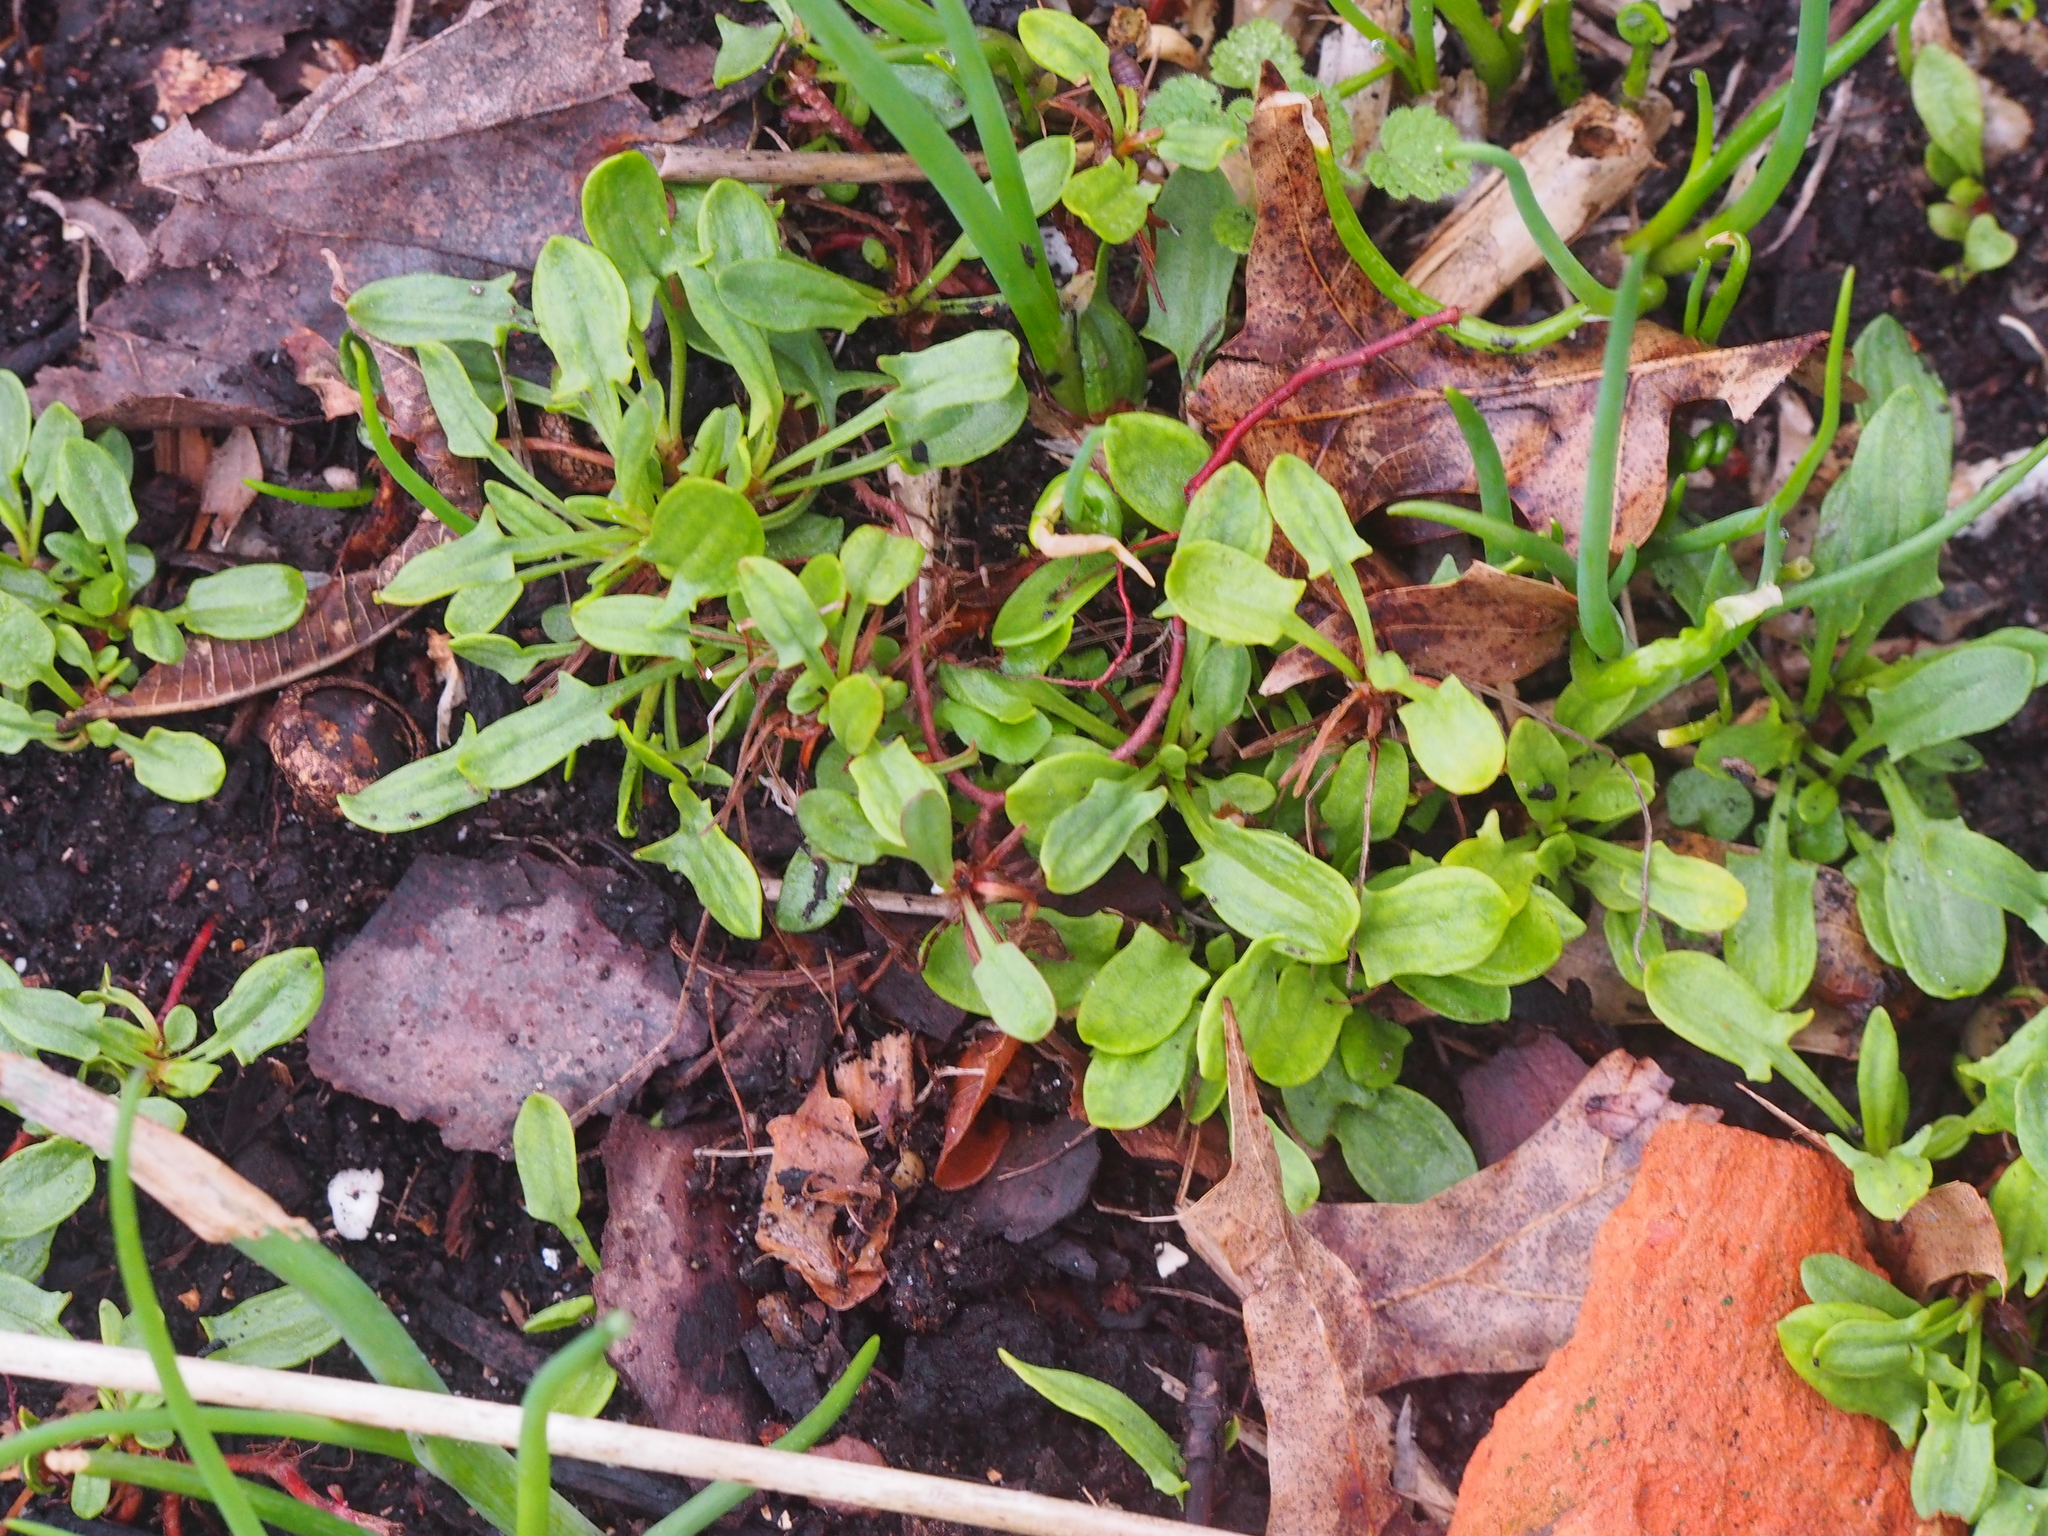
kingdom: Plantae
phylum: Tracheophyta
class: Magnoliopsida
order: Caryophyllales
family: Polygonaceae
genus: Rumex
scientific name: Rumex acetosella
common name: Common sheep sorrel
